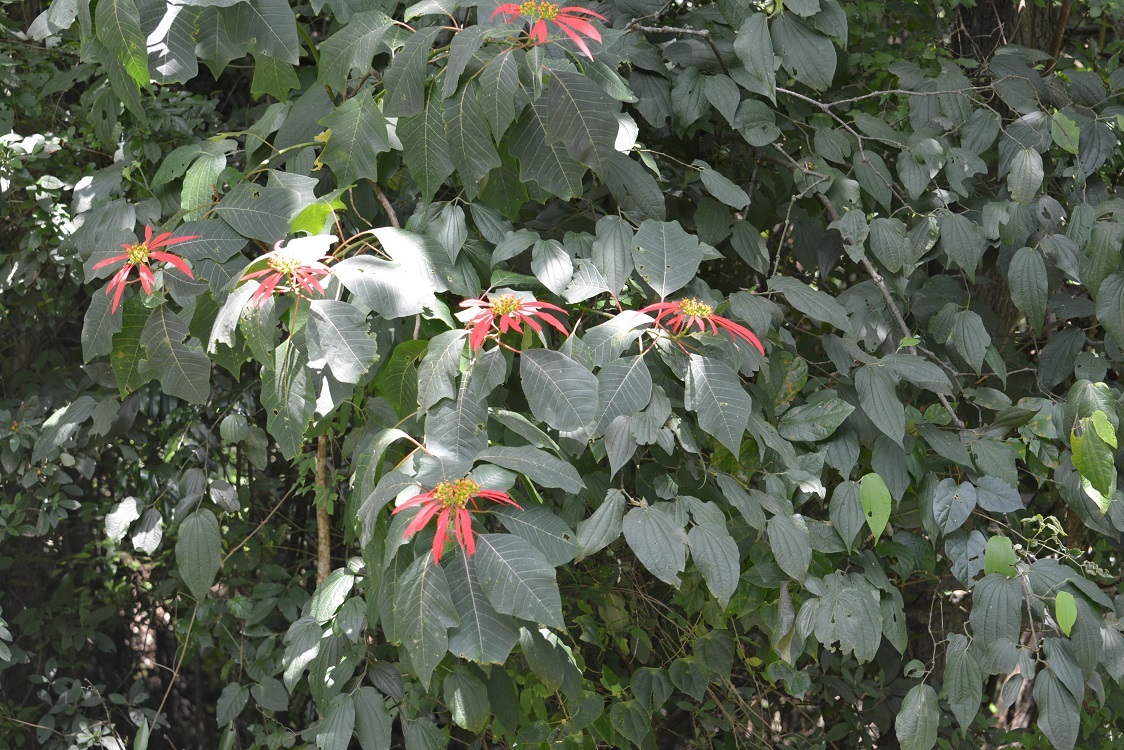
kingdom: Plantae
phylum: Tracheophyta
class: Magnoliopsida
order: Malpighiales
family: Euphorbiaceae
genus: Euphorbia
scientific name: Euphorbia pulcherrima
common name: Christmas-flower
